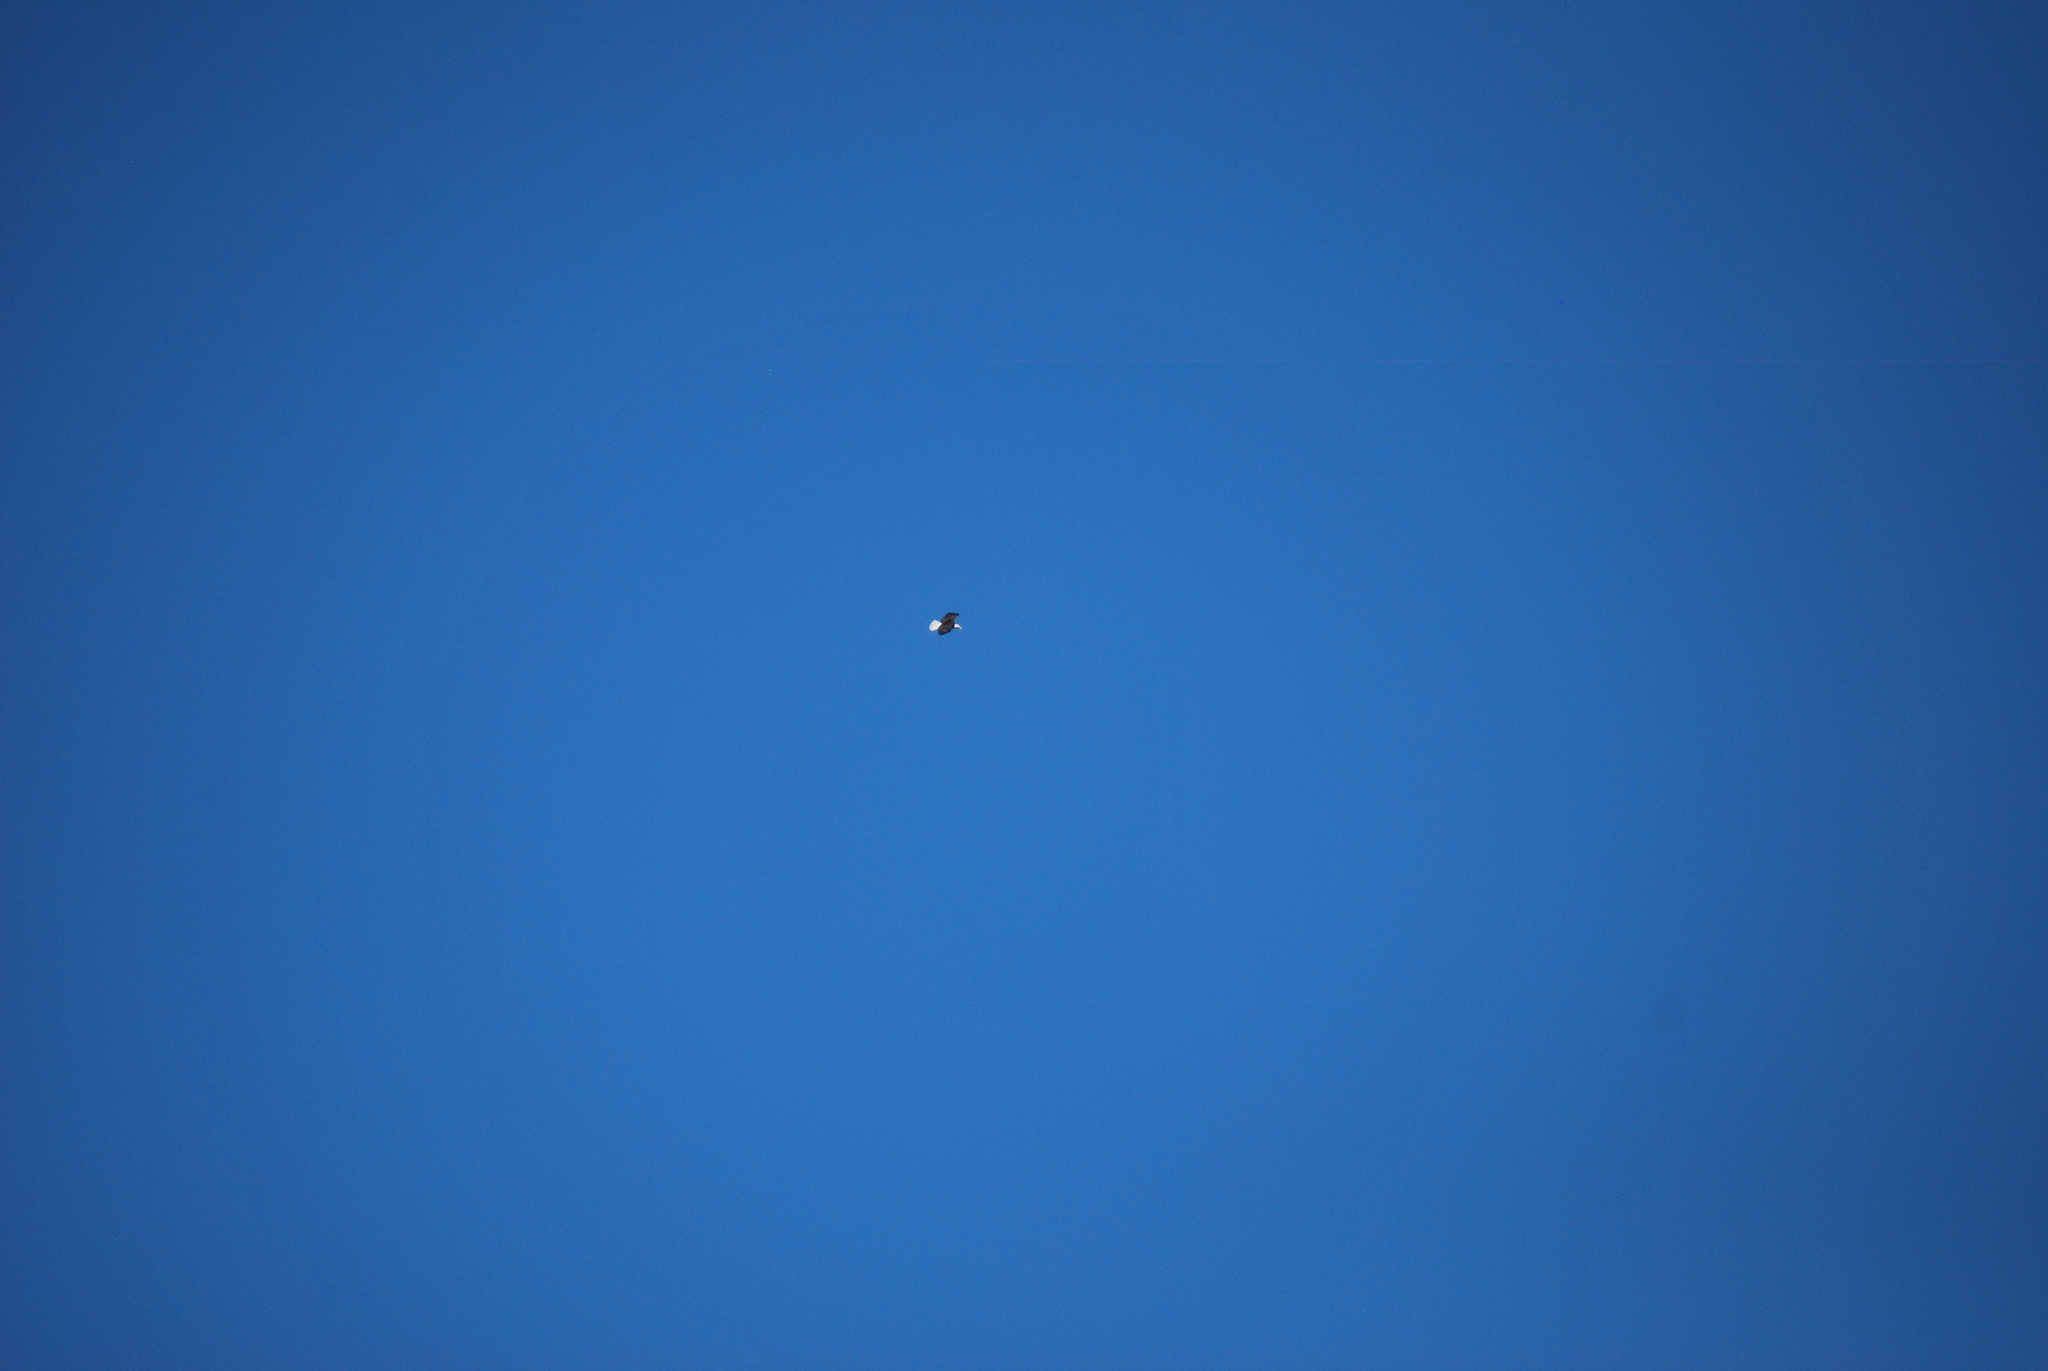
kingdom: Animalia
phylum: Chordata
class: Aves
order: Accipitriformes
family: Accipitridae
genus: Haliaeetus
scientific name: Haliaeetus leucocephalus
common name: Bald eagle
